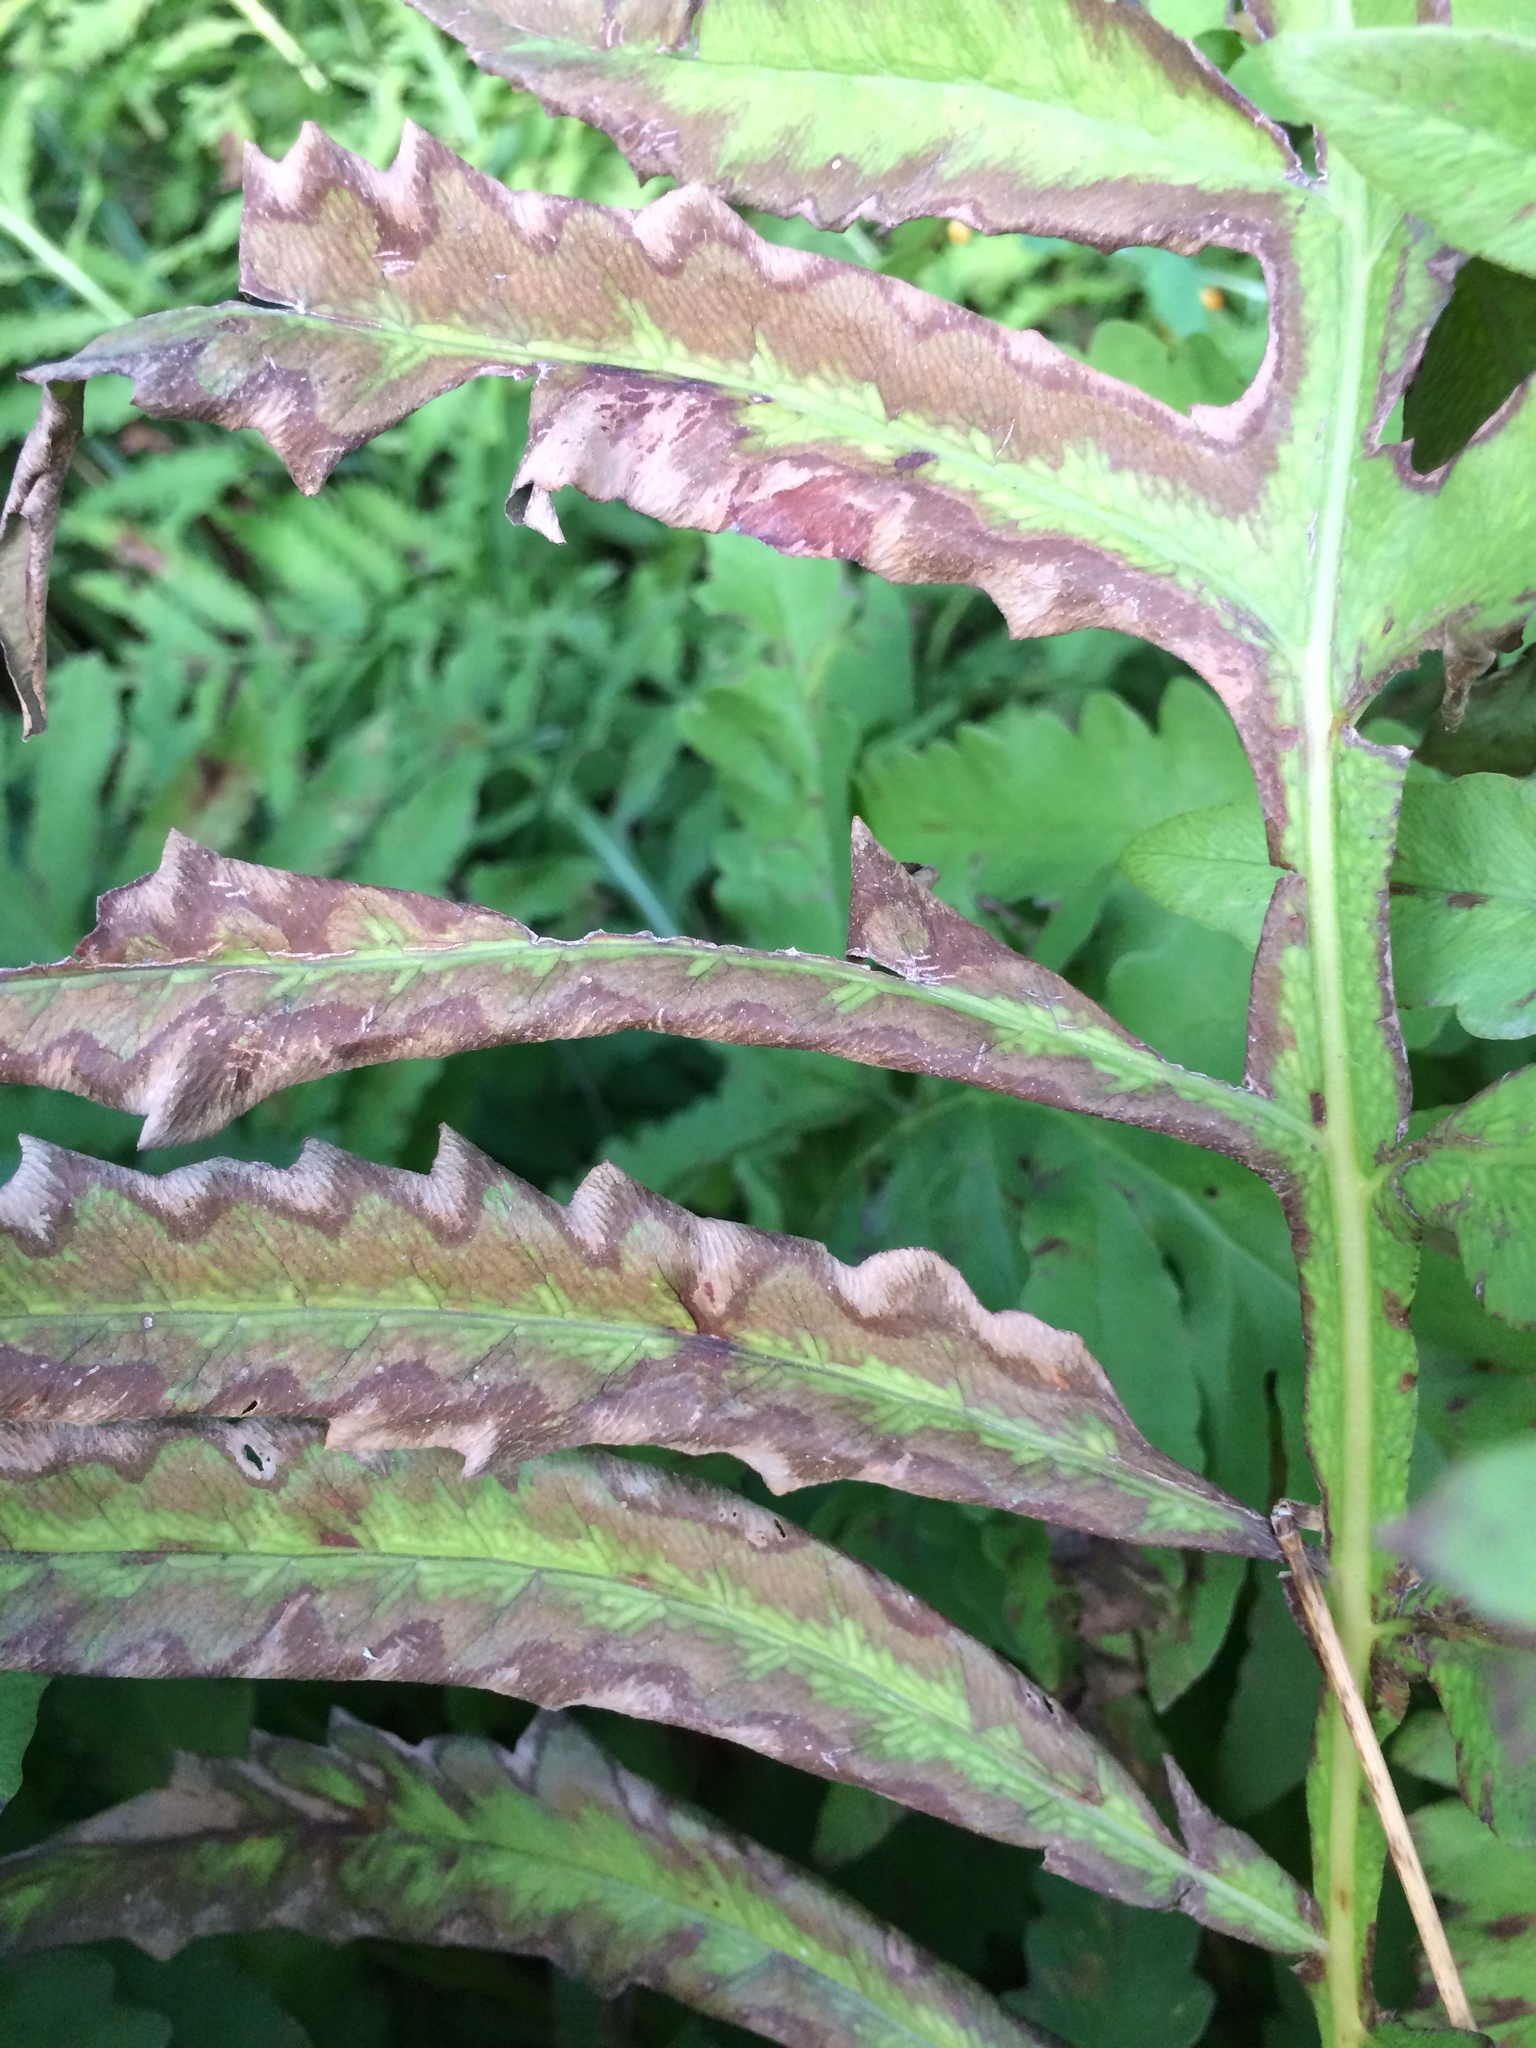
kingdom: Plantae
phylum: Tracheophyta
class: Polypodiopsida
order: Polypodiales
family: Onocleaceae
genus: Onoclea
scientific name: Onoclea sensibilis
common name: Sensitive fern
